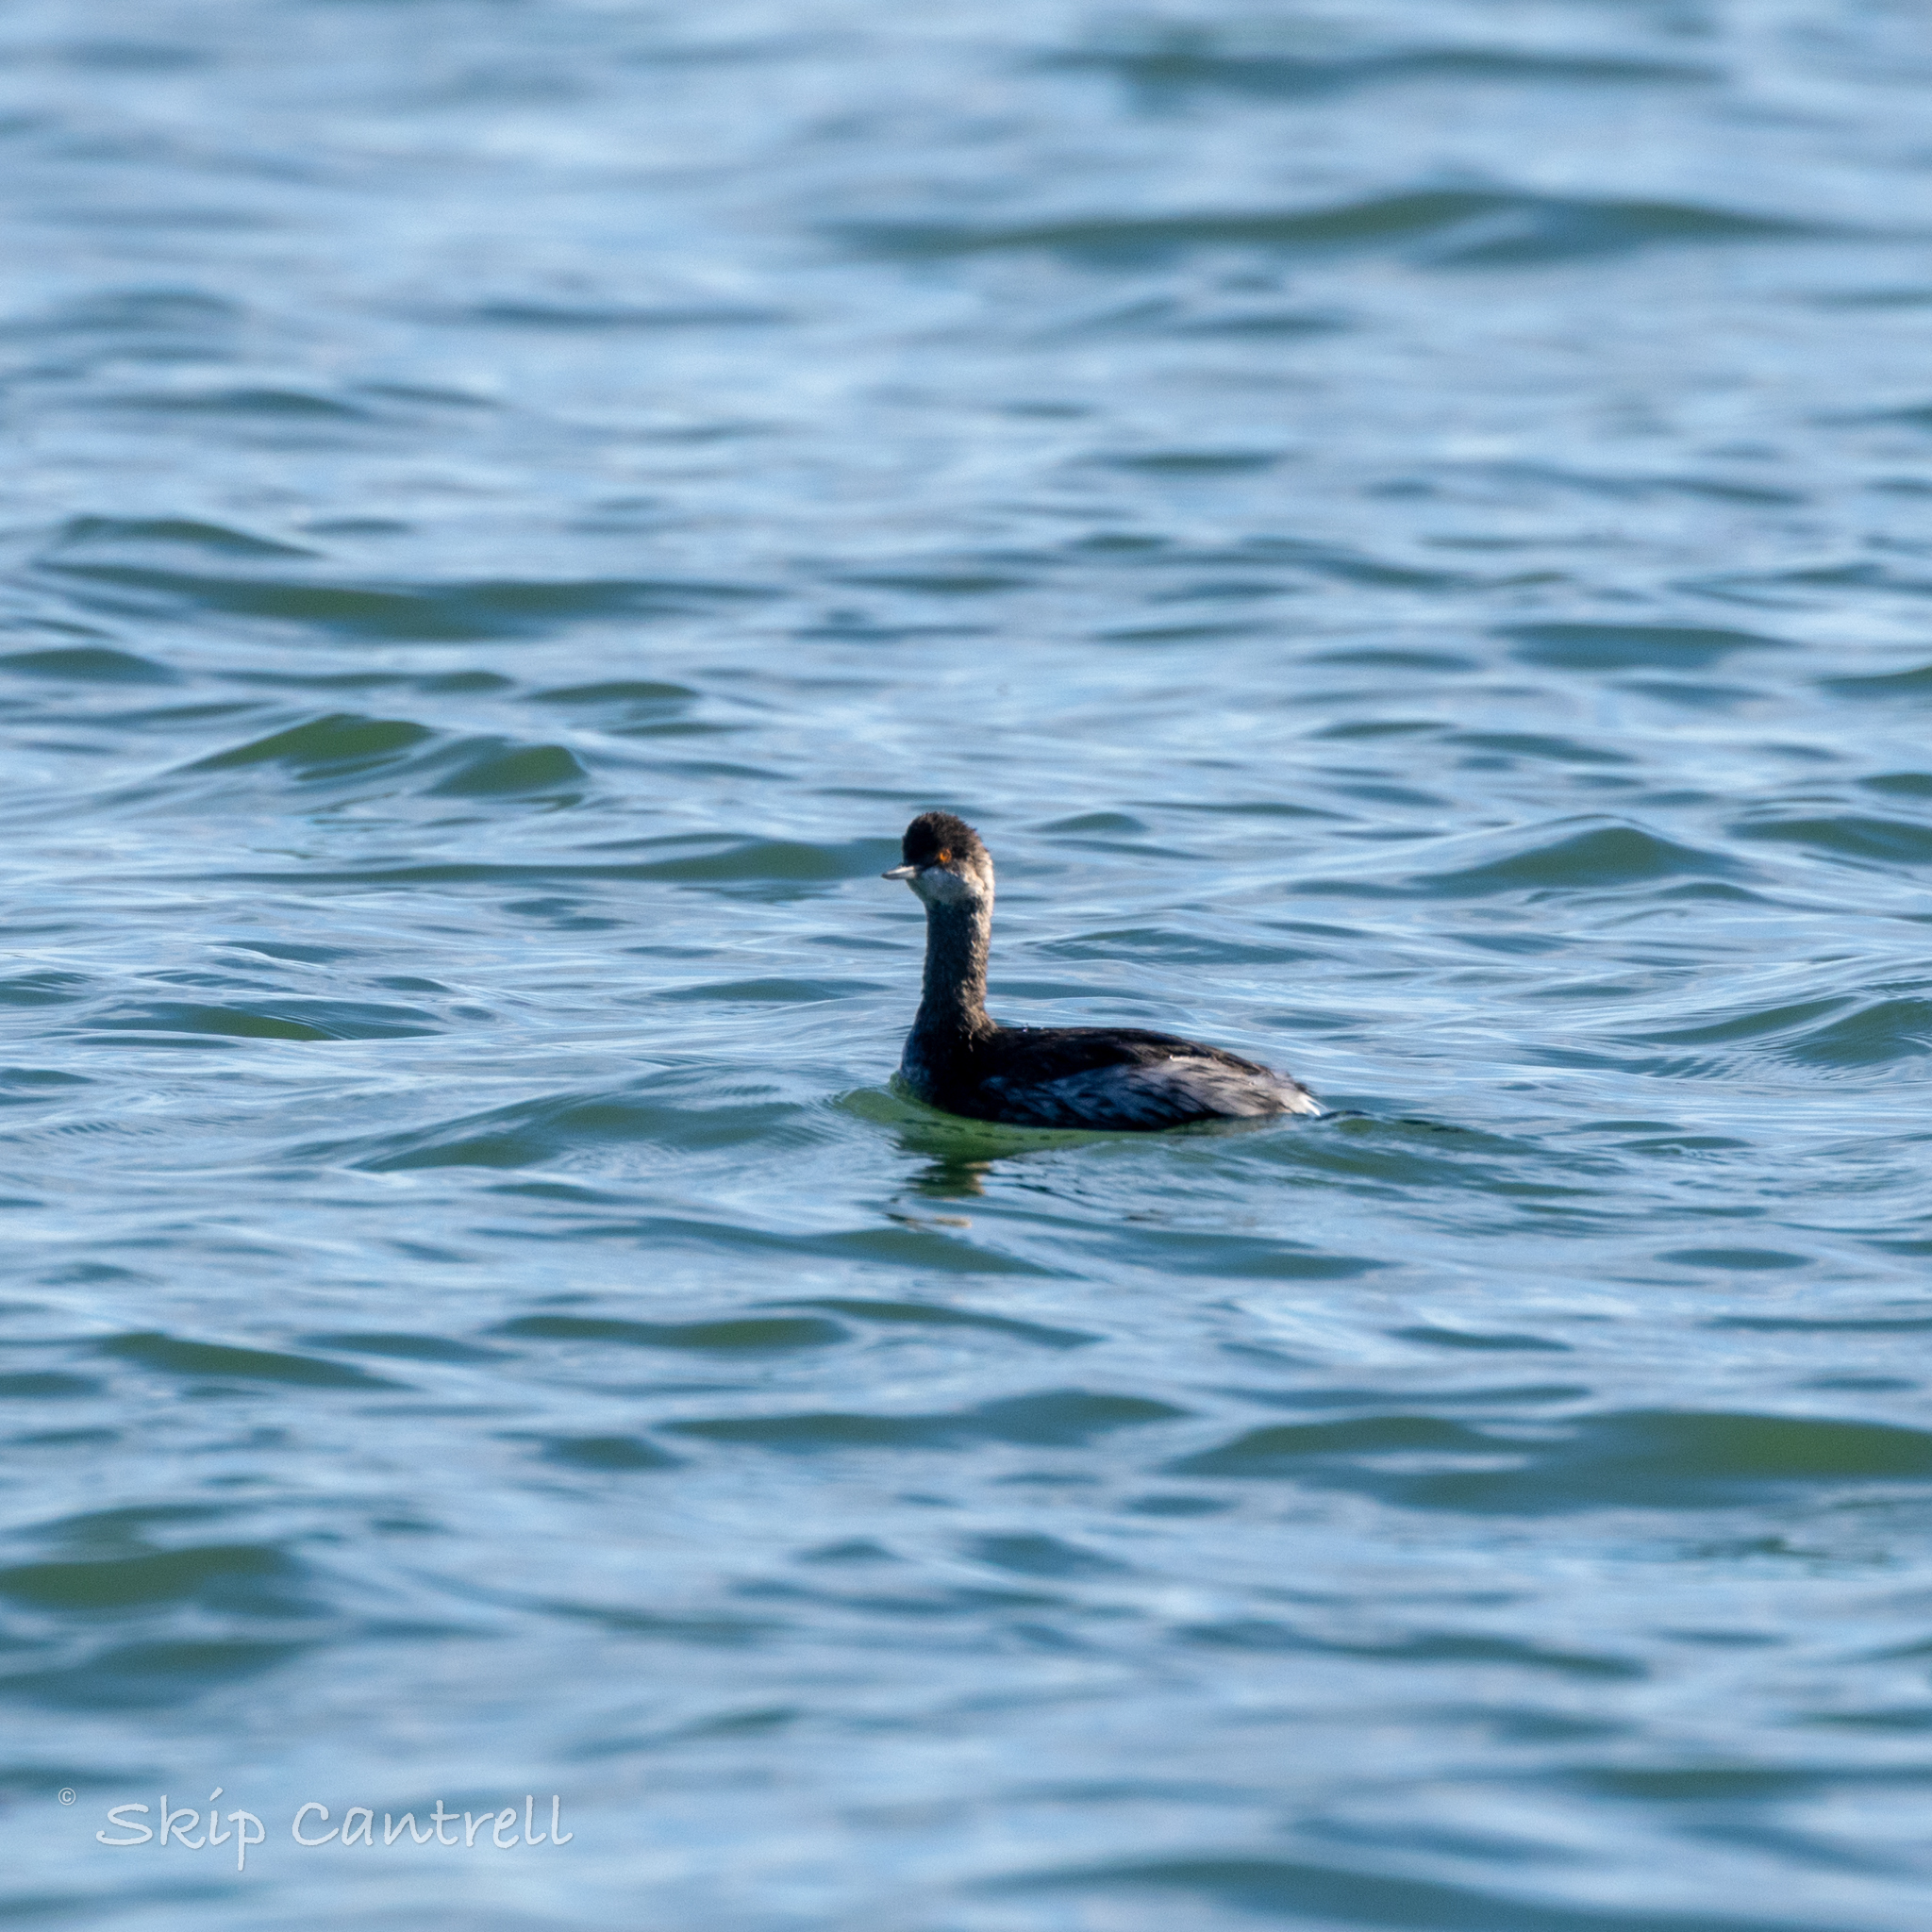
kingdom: Animalia
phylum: Chordata
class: Aves
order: Podicipediformes
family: Podicipedidae
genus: Podiceps
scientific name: Podiceps nigricollis
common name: Black-necked grebe
